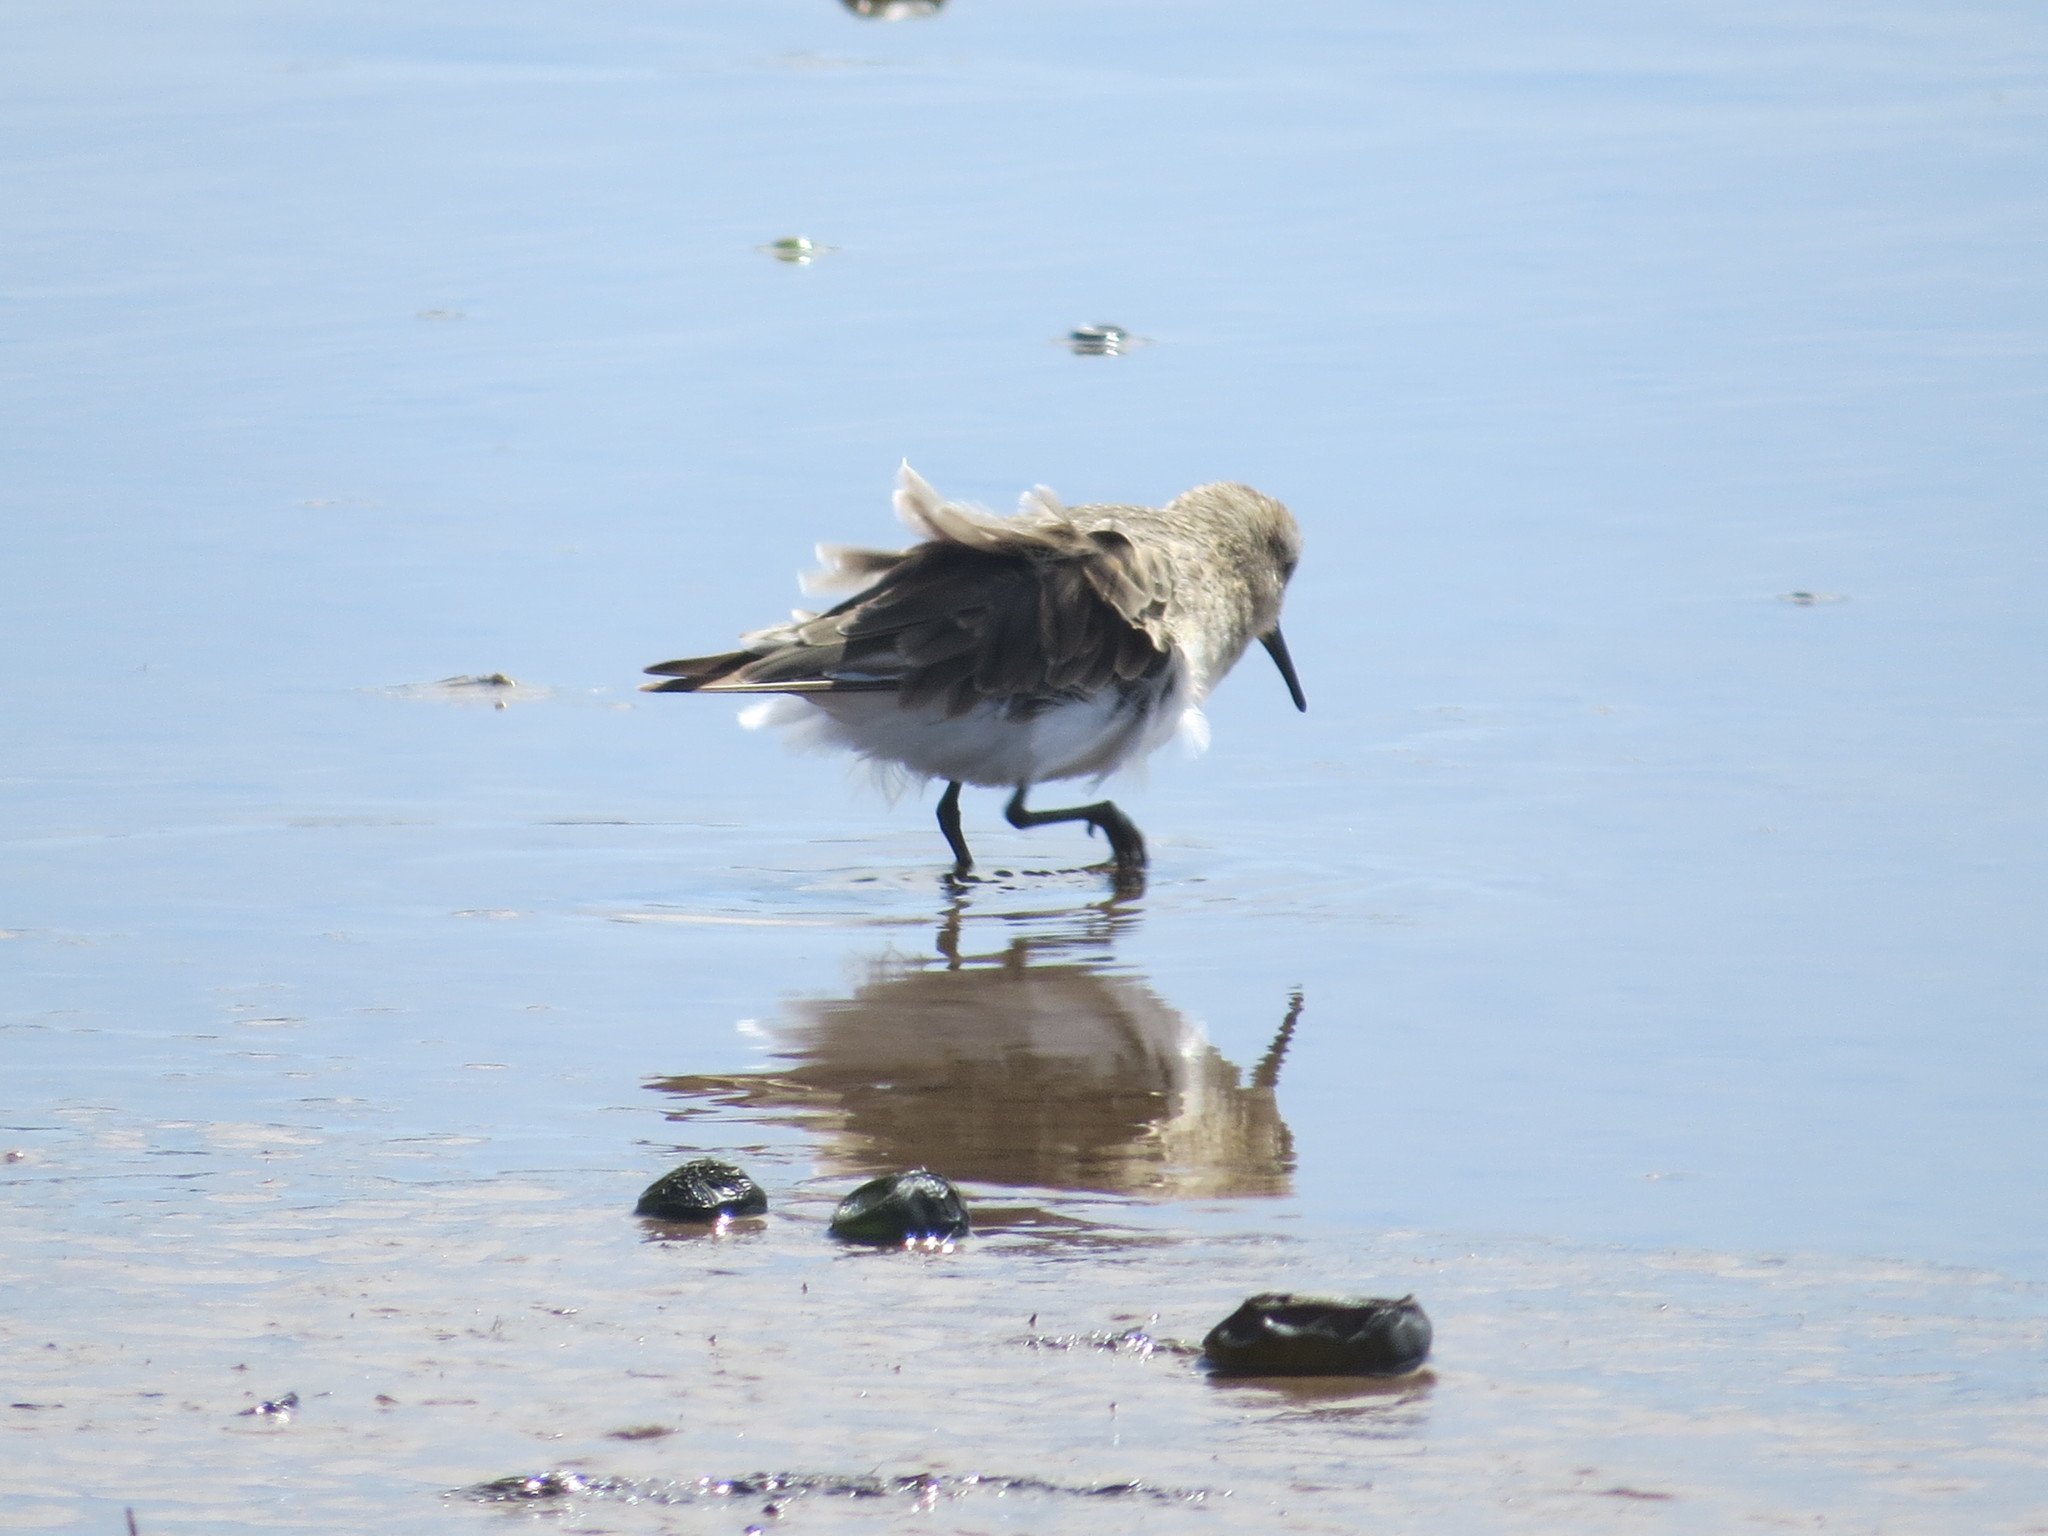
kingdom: Animalia
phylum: Chordata
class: Aves
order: Charadriiformes
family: Scolopacidae
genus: Calidris
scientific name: Calidris bairdii
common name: Baird's sandpiper
